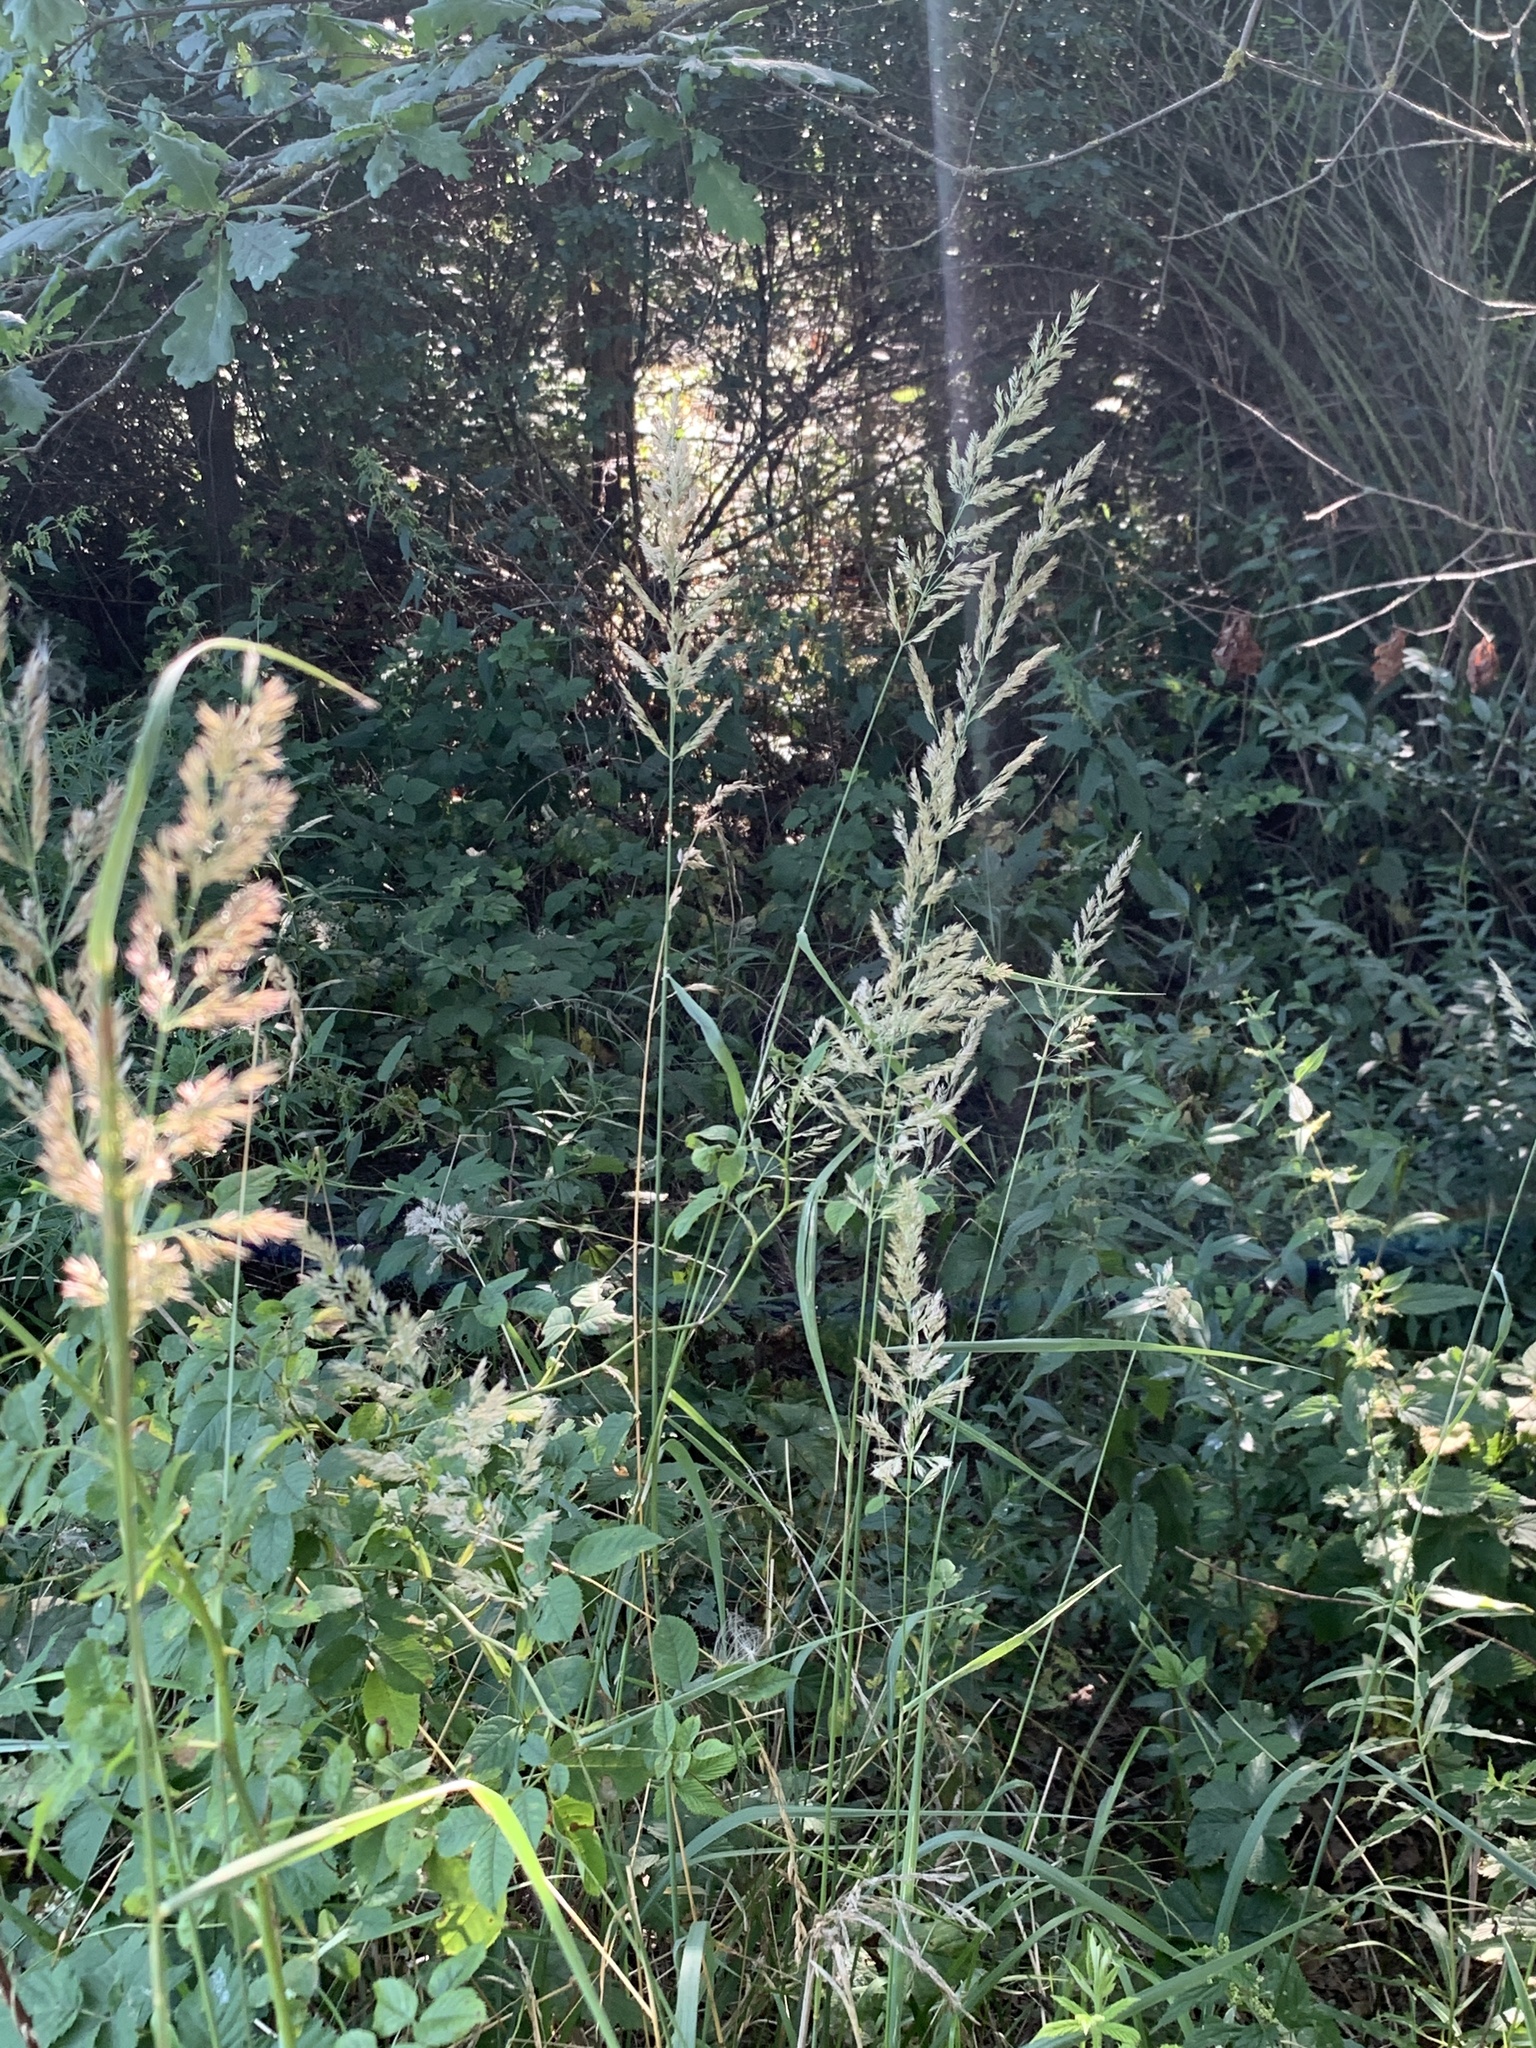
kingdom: Plantae
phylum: Tracheophyta
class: Liliopsida
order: Poales
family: Poaceae
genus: Calamagrostis
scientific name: Calamagrostis epigejos
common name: Wood small-reed
